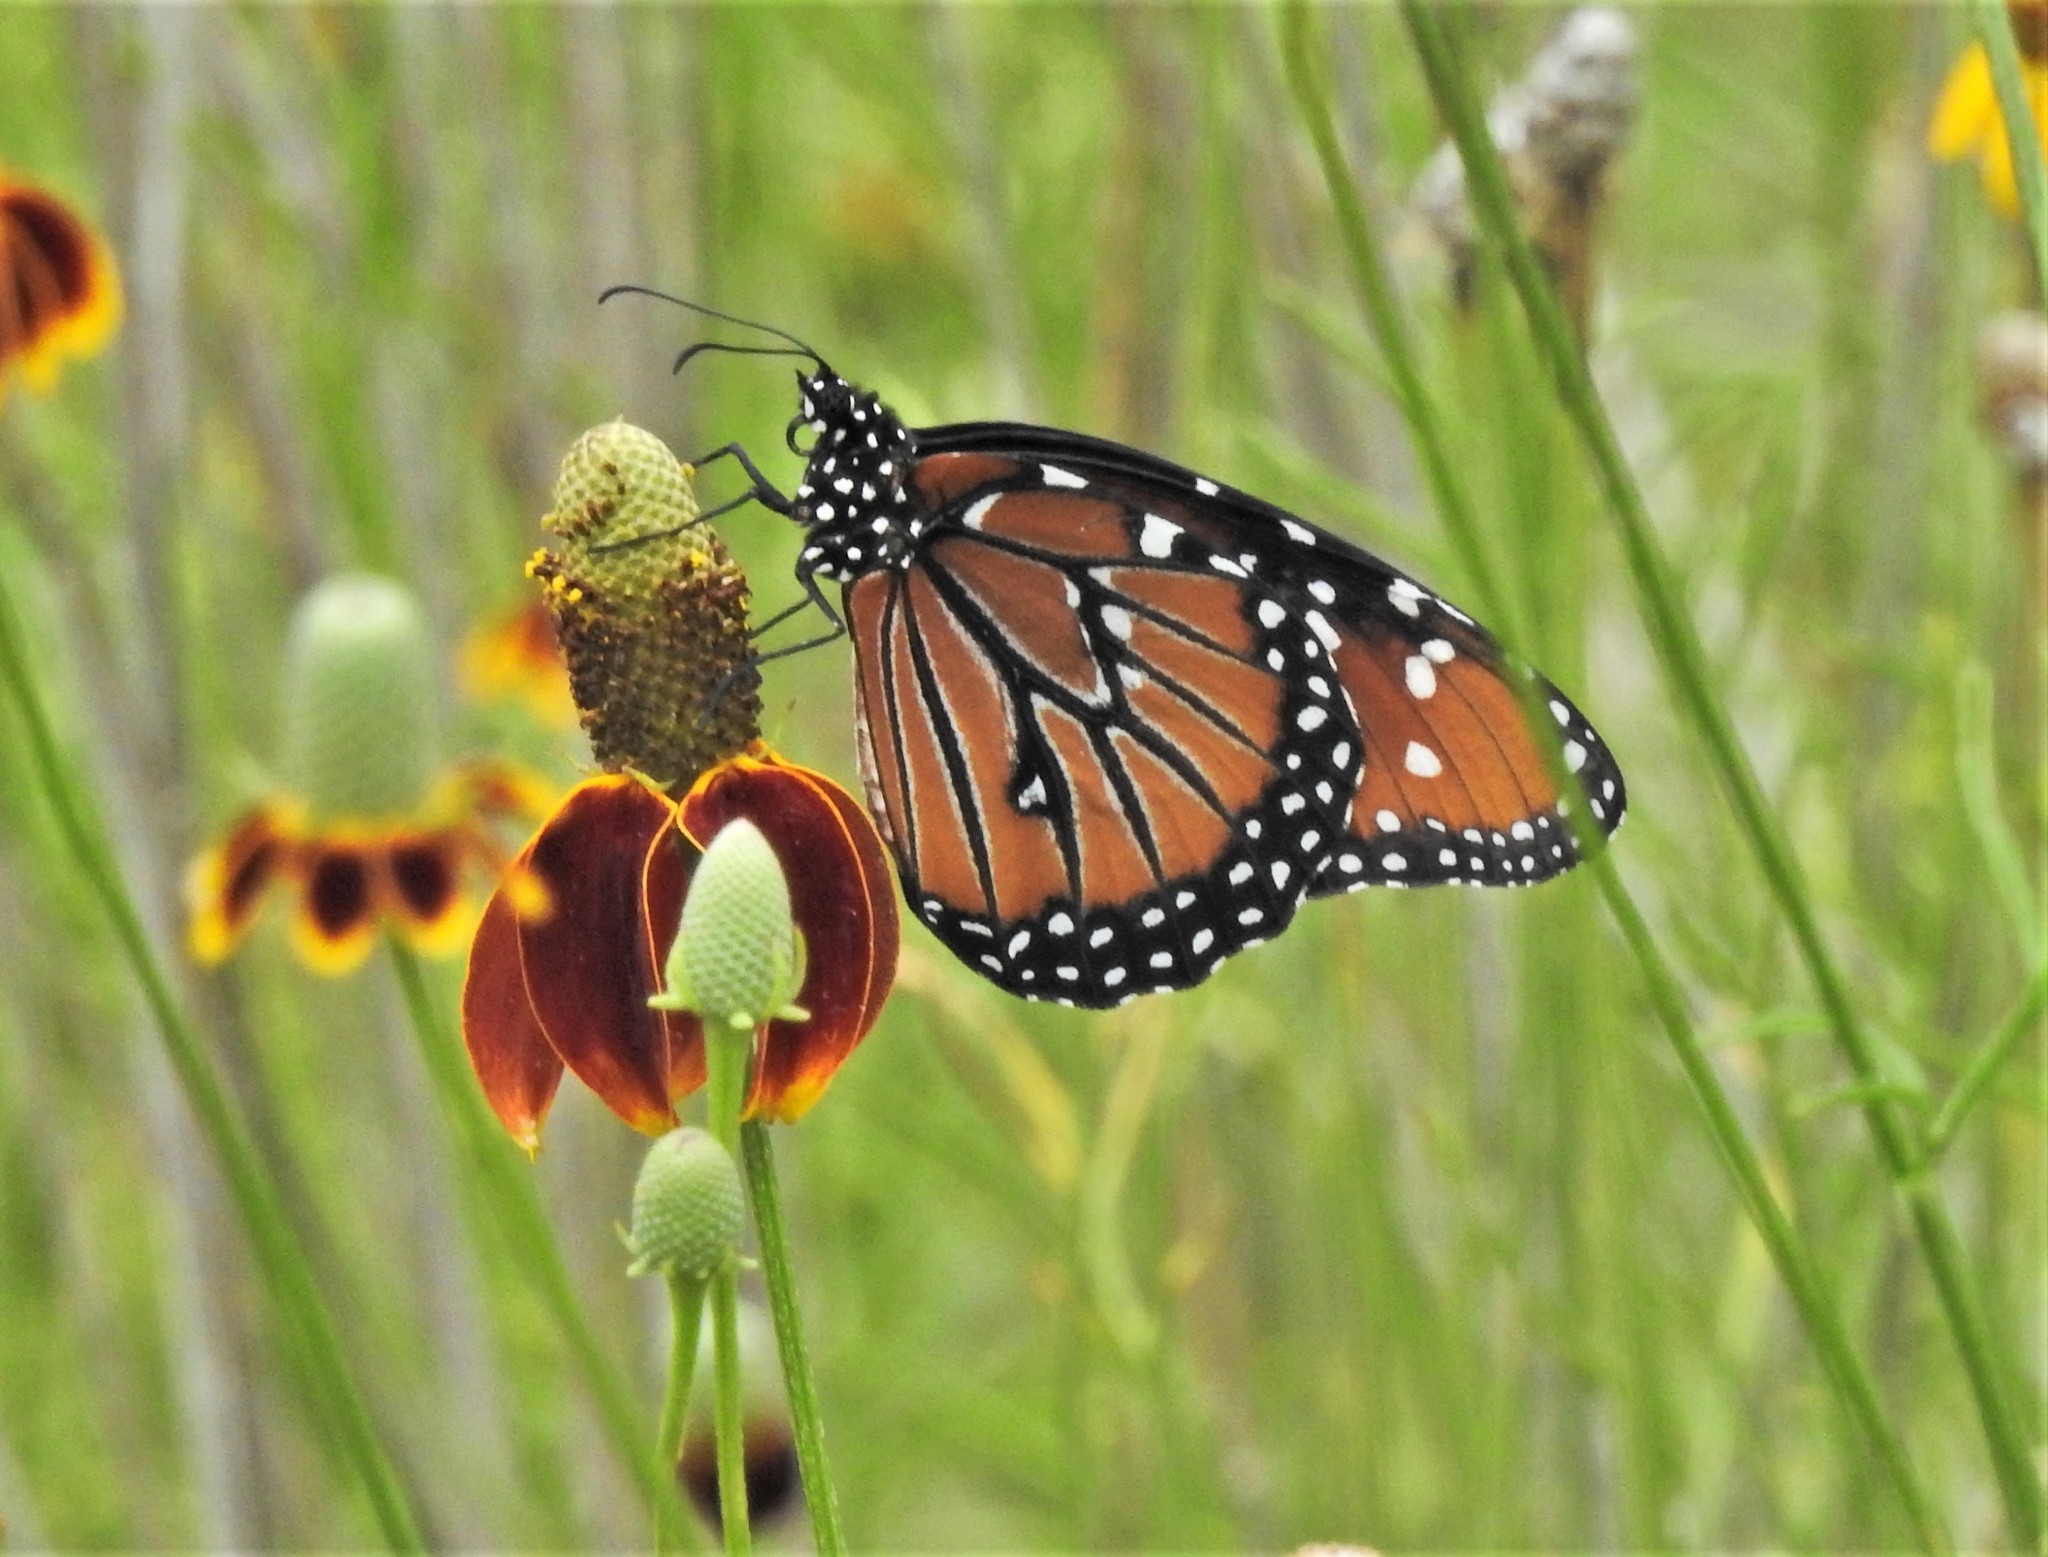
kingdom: Animalia
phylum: Arthropoda
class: Insecta
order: Lepidoptera
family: Nymphalidae
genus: Danaus
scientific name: Danaus gilippus
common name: Queen
